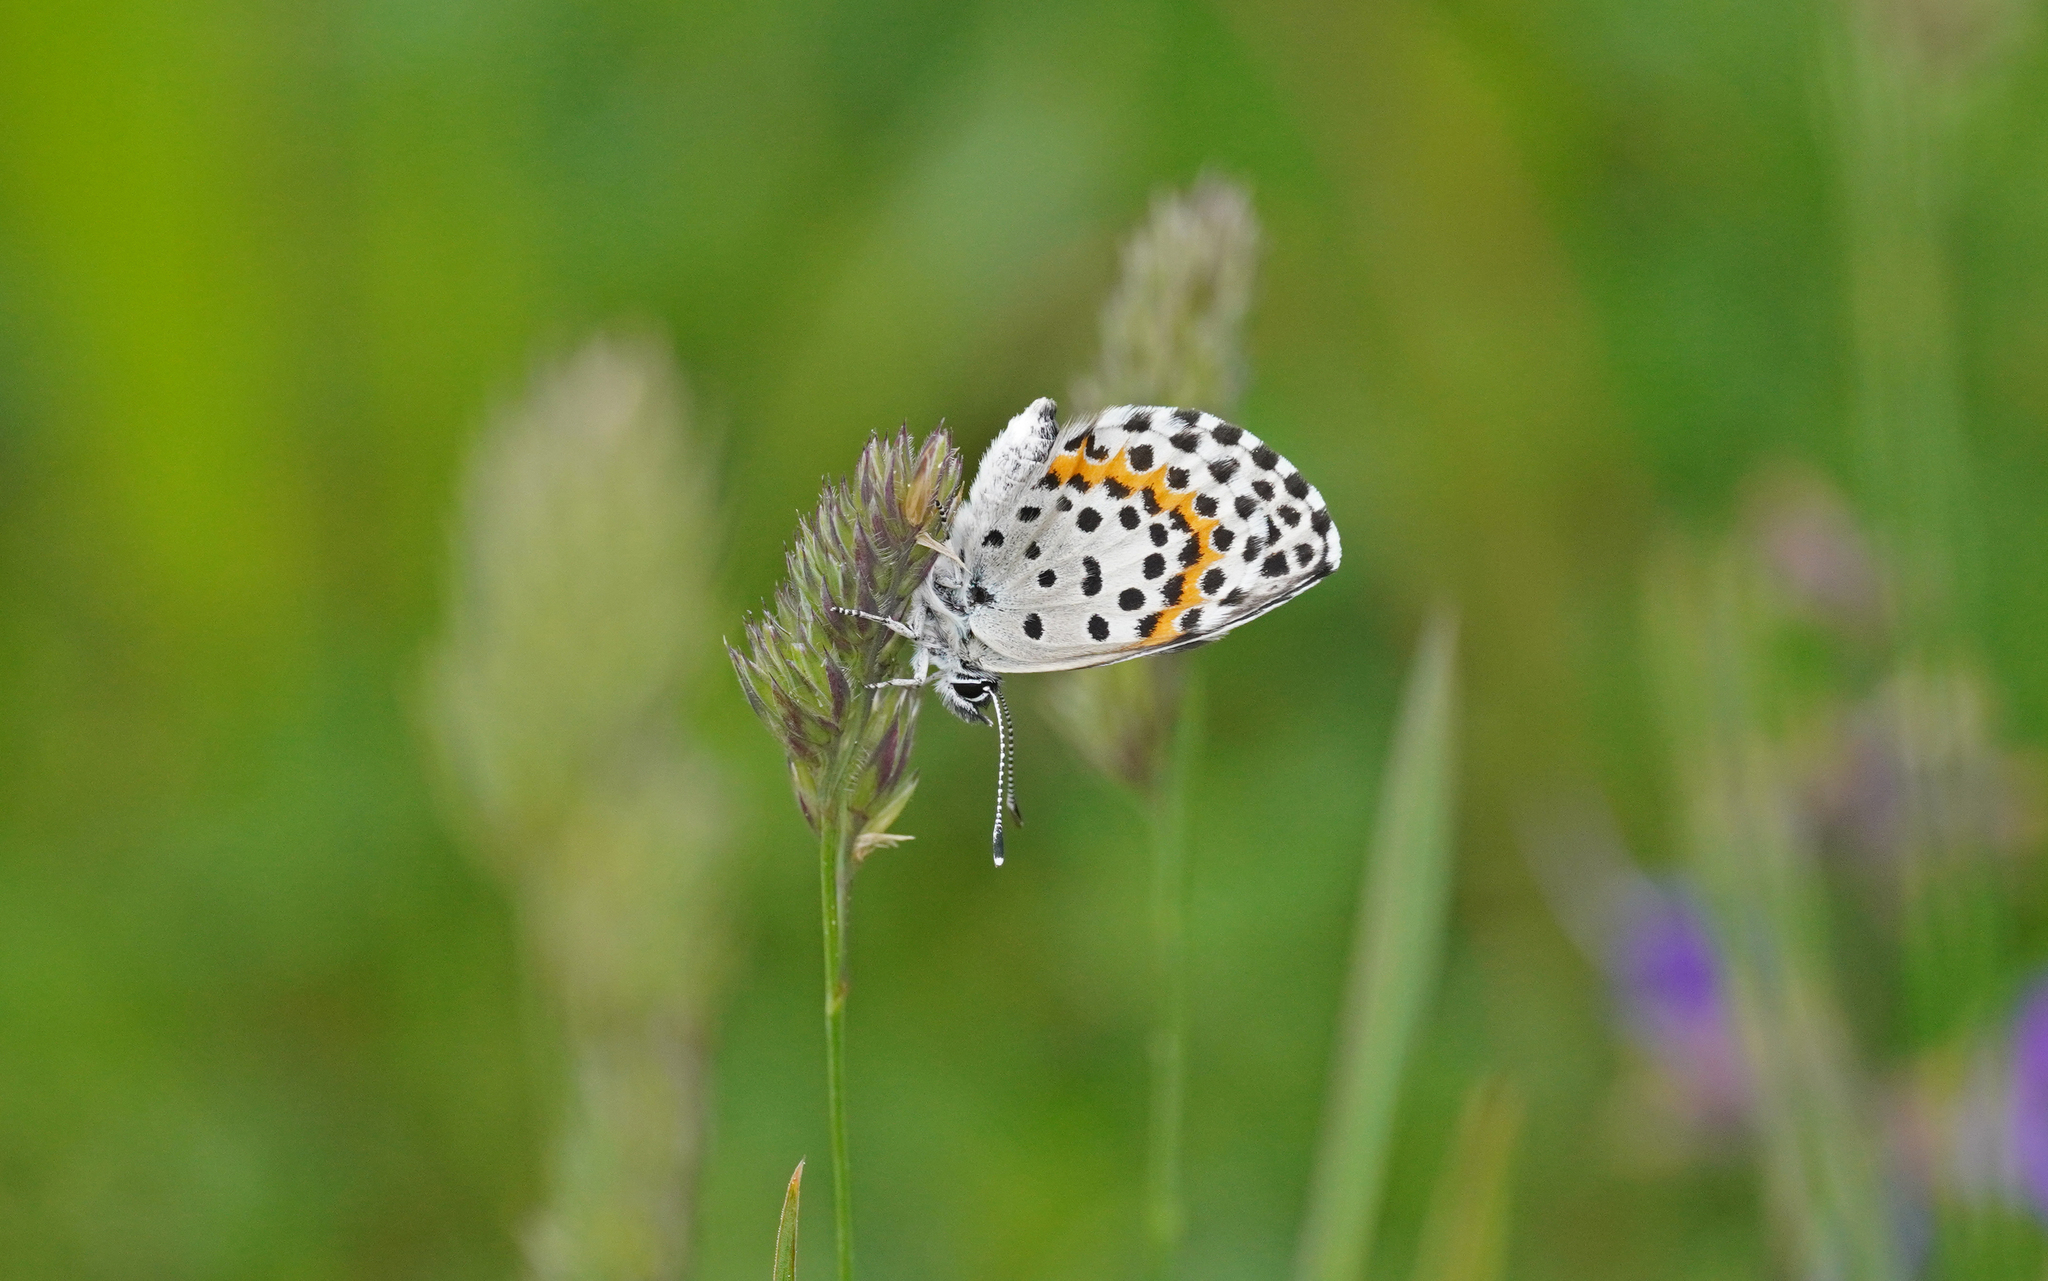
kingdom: Animalia
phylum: Arthropoda
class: Insecta
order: Lepidoptera
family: Lycaenidae
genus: Scolitantides
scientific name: Scolitantides orion
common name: Chequered blue
